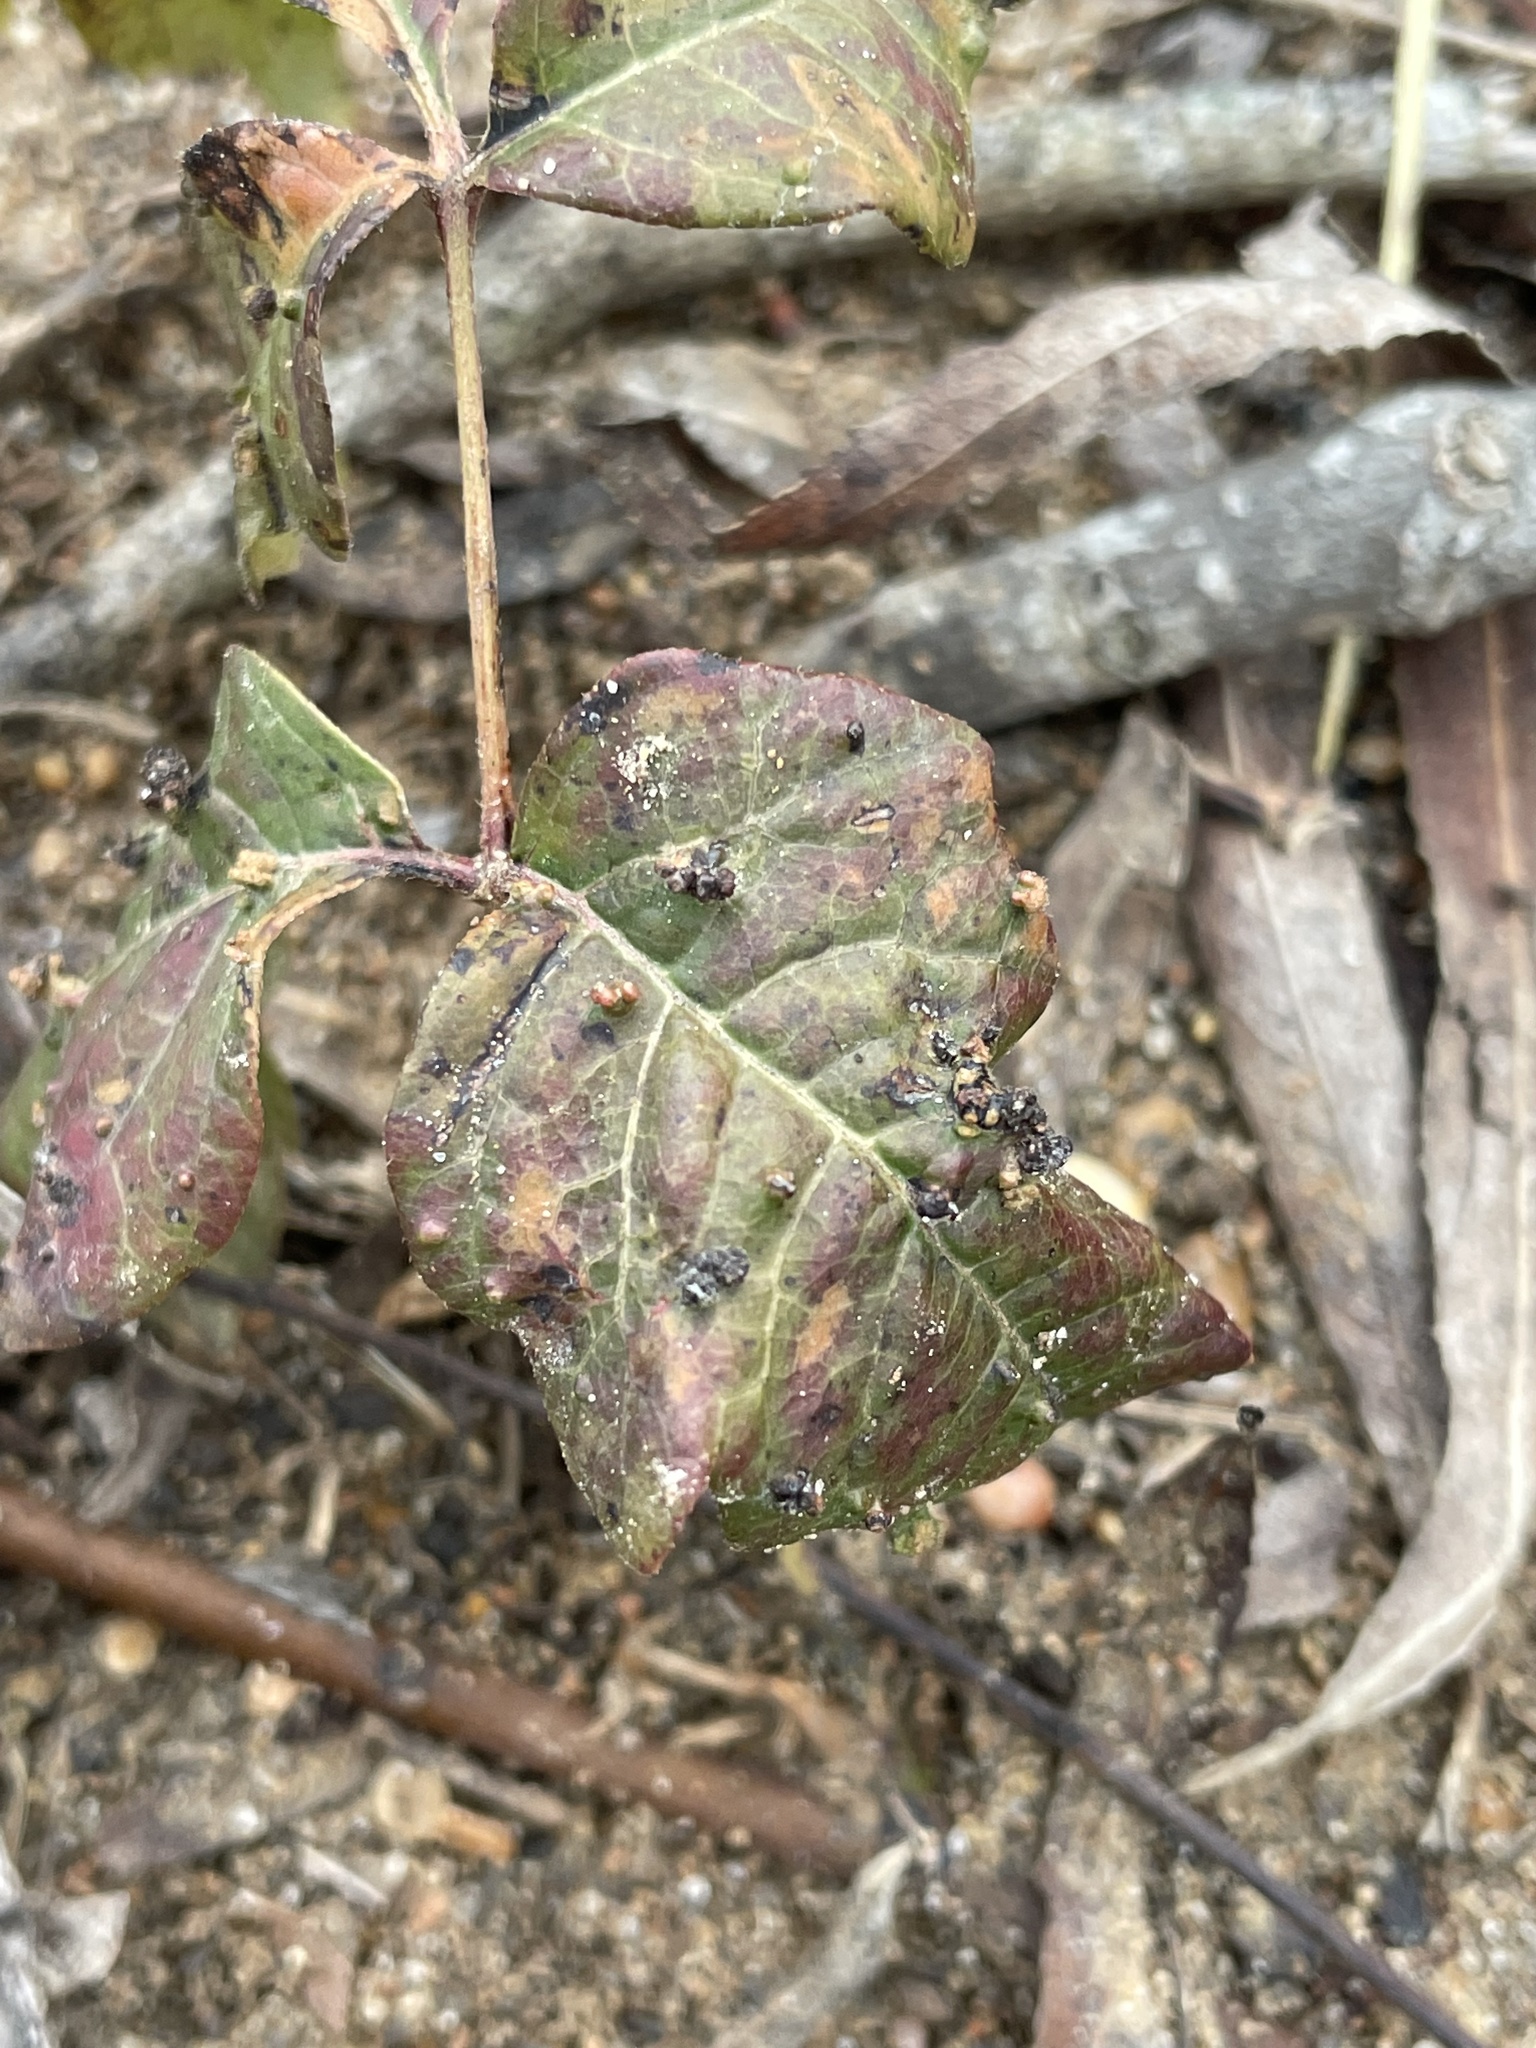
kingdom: Animalia
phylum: Arthropoda
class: Arachnida
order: Trombidiformes
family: Eriophyidae
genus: Aculops
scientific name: Aculops
